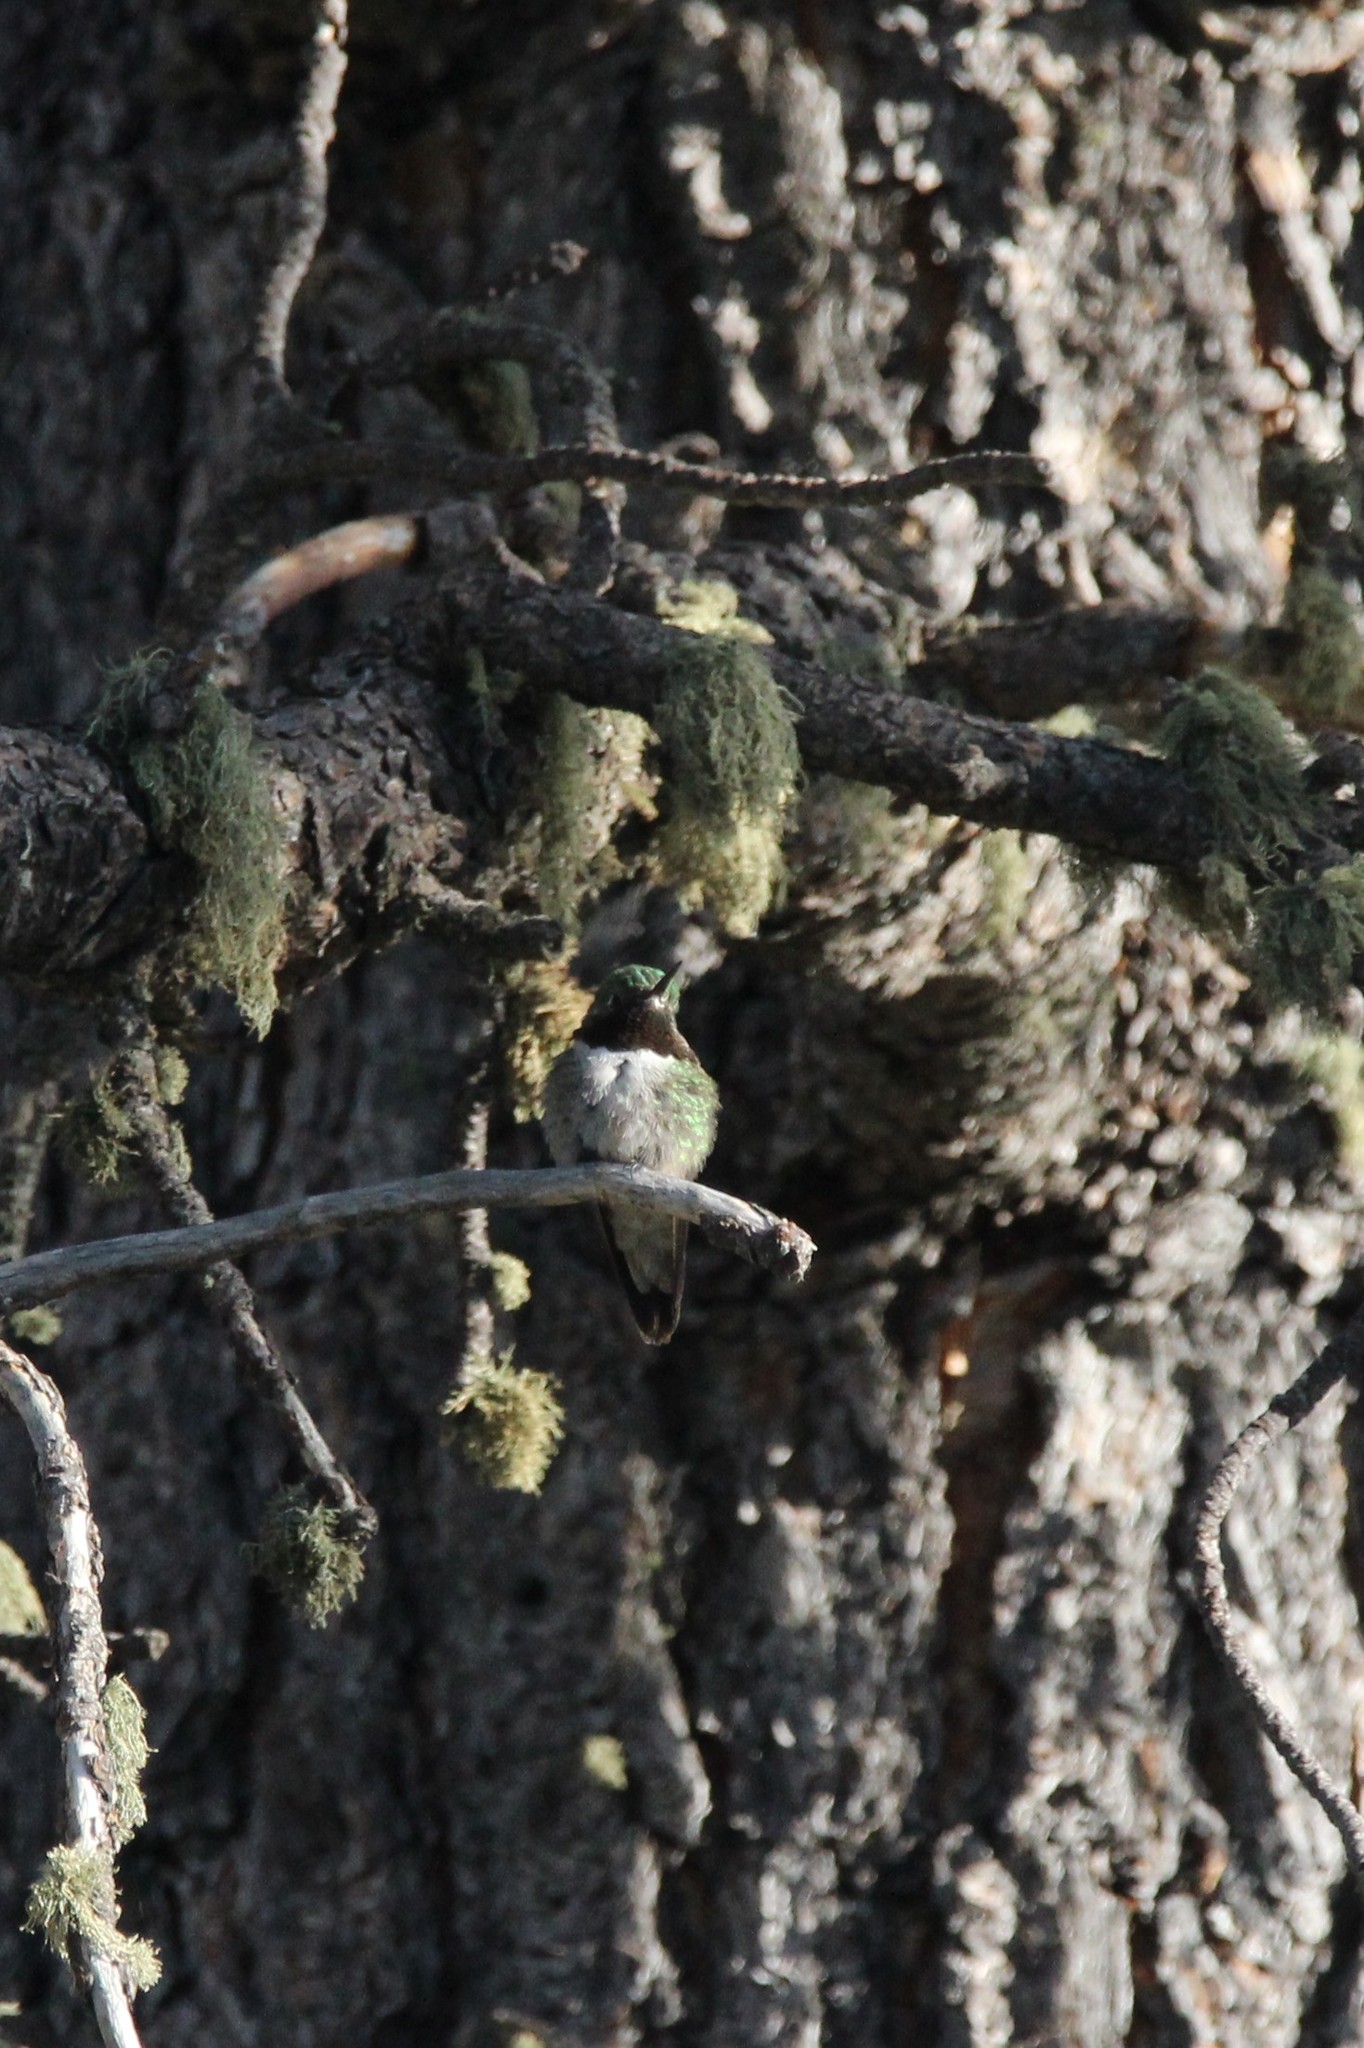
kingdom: Animalia
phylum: Chordata
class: Aves
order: Apodiformes
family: Trochilidae
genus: Selasphorus
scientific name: Selasphorus platycercus
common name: Broad-tailed hummingbird
